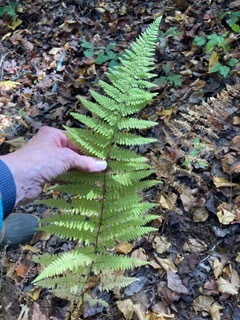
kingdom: Plantae
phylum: Tracheophyta
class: Polypodiopsida
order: Polypodiales
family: Dennstaedtiaceae
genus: Sitobolium
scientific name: Sitobolium punctilobum
